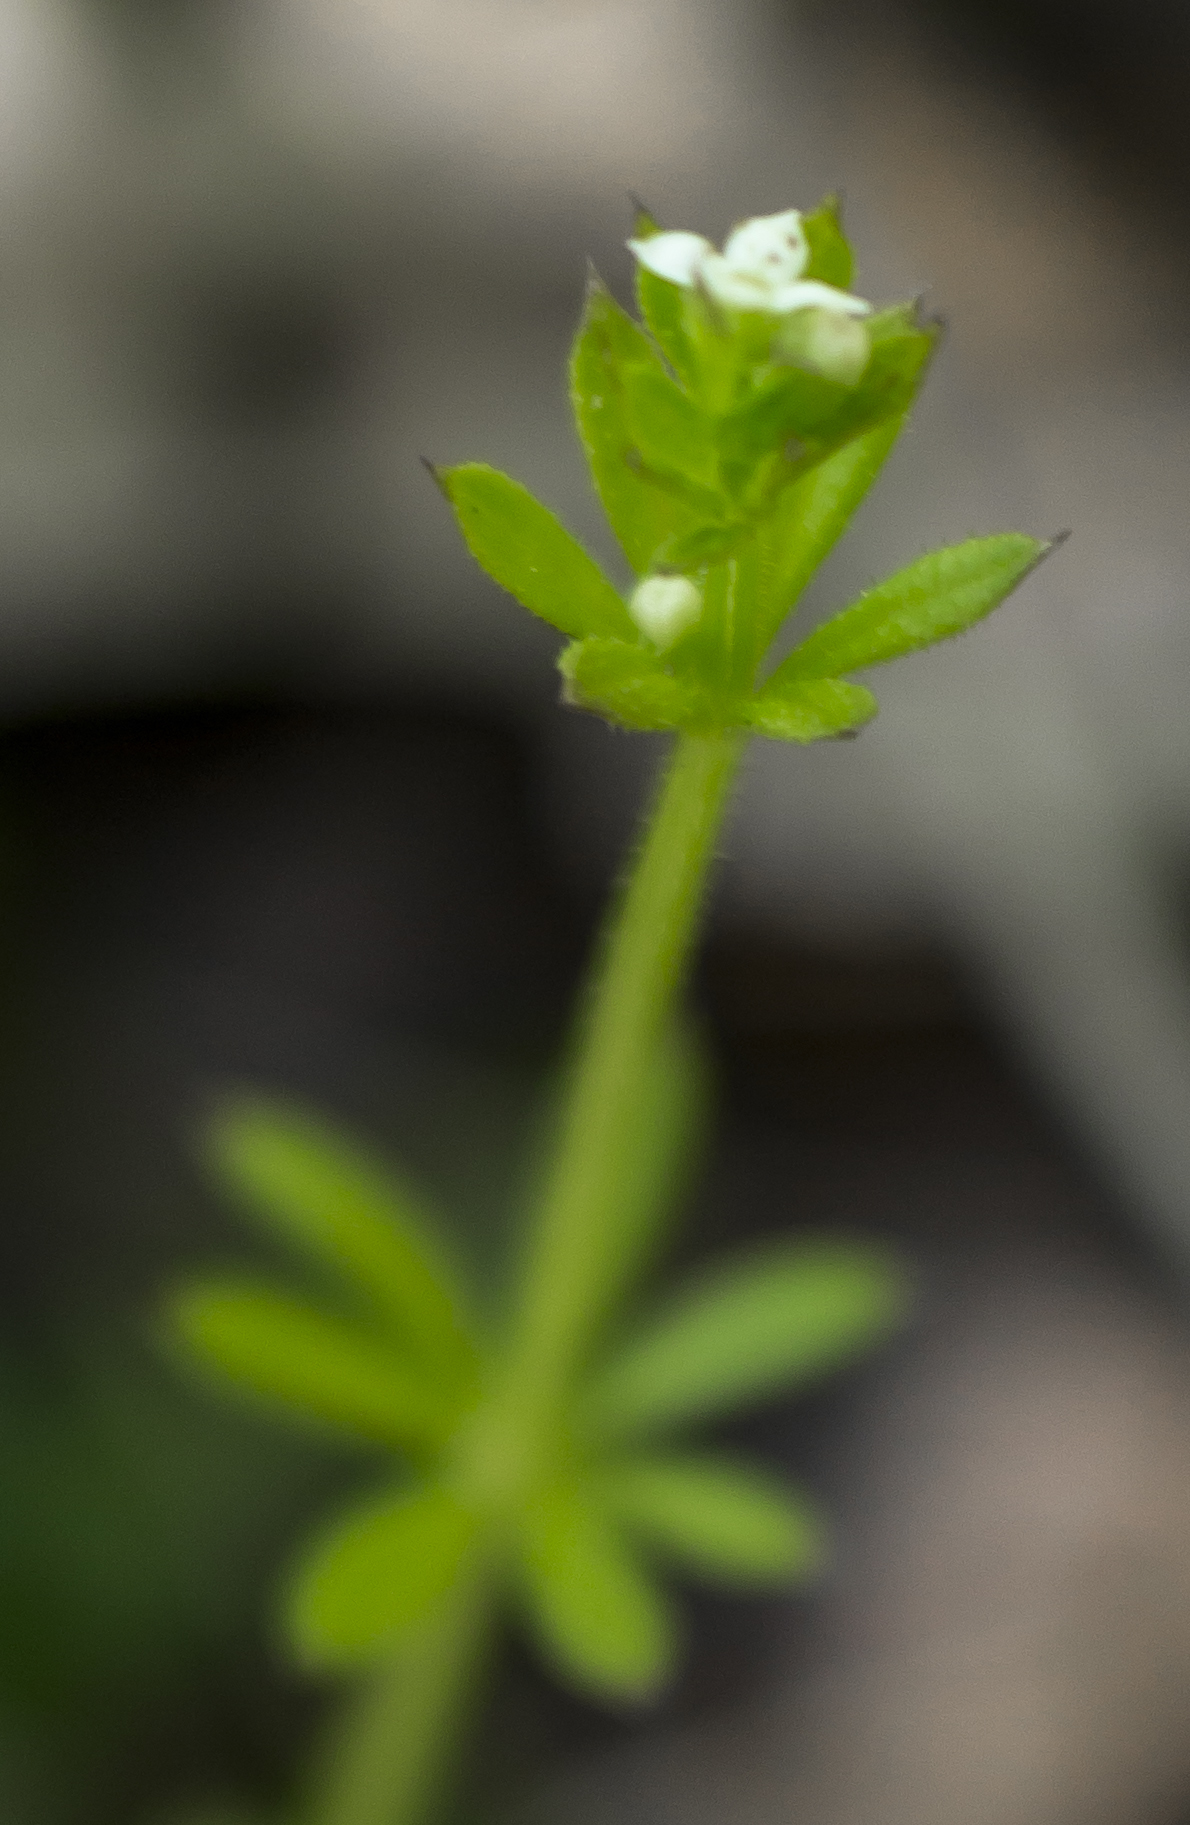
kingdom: Plantae
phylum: Tracheophyta
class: Magnoliopsida
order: Gentianales
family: Rubiaceae
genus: Galium
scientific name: Galium aparine
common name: Cleavers
